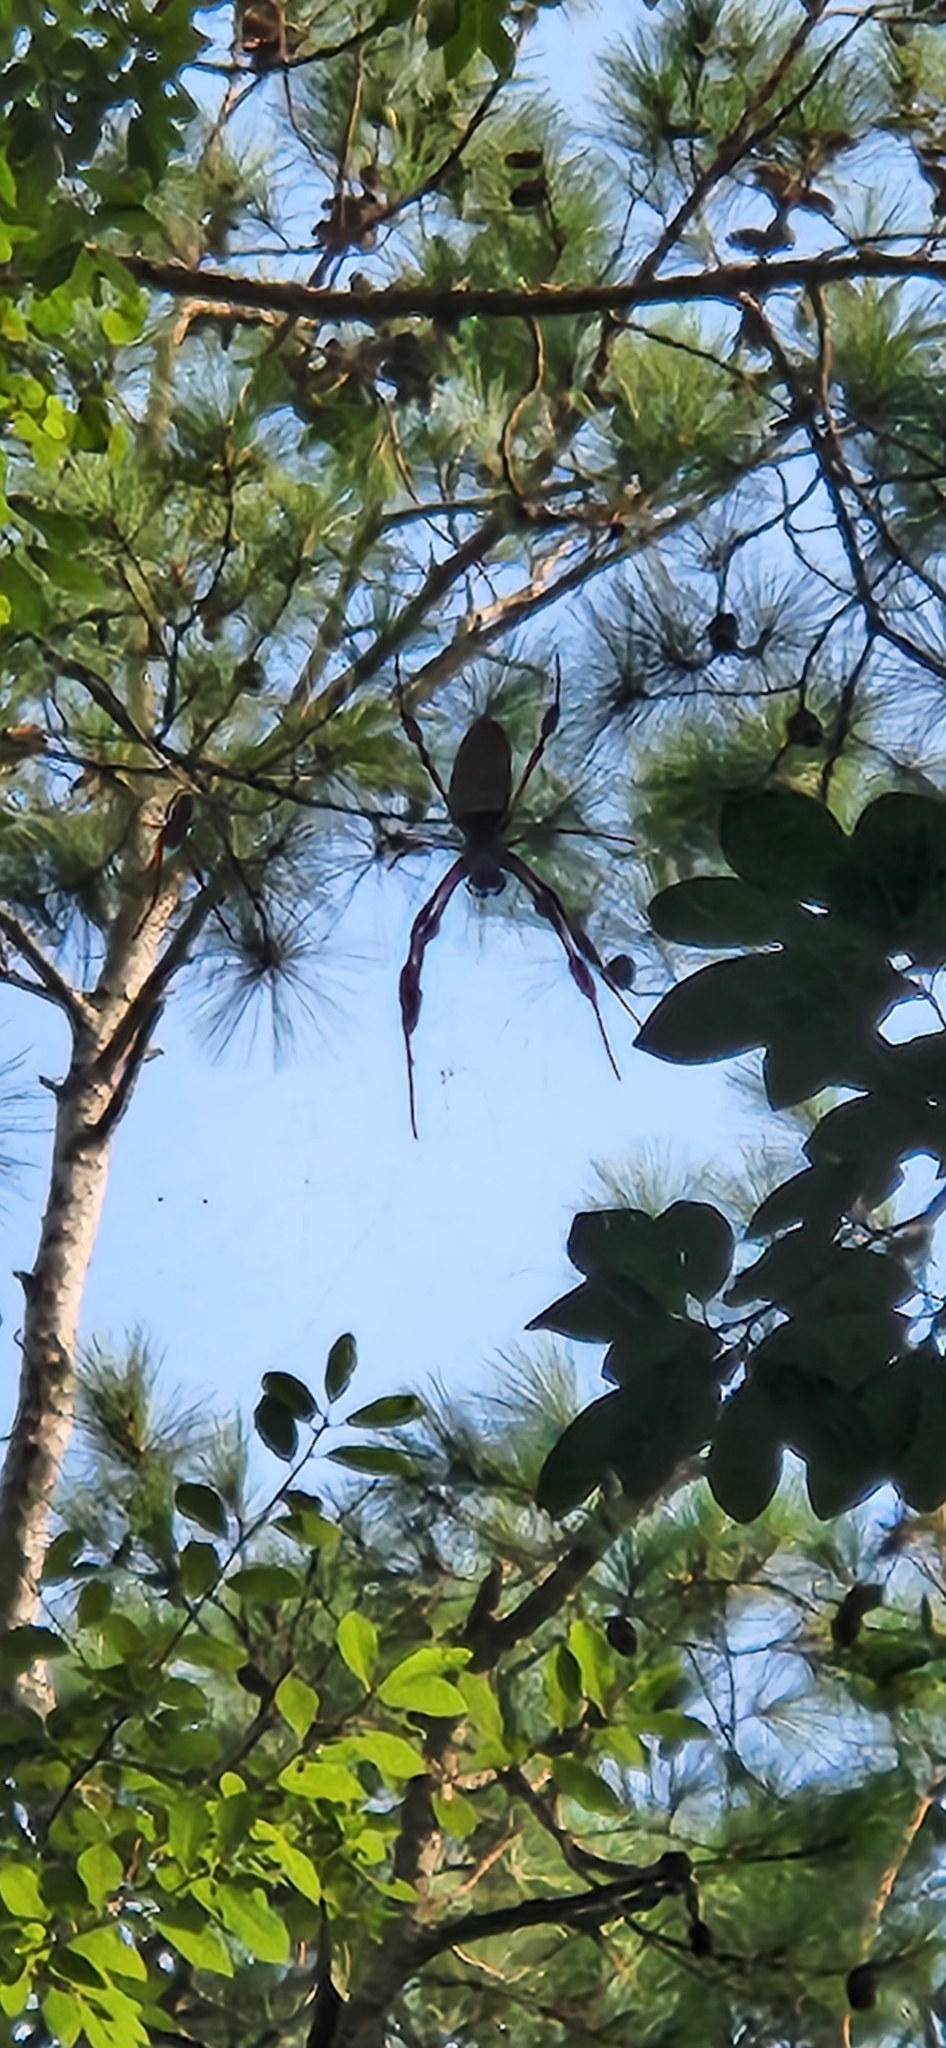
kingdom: Animalia
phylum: Arthropoda
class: Arachnida
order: Araneae
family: Araneidae
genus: Trichonephila
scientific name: Trichonephila clavipes
